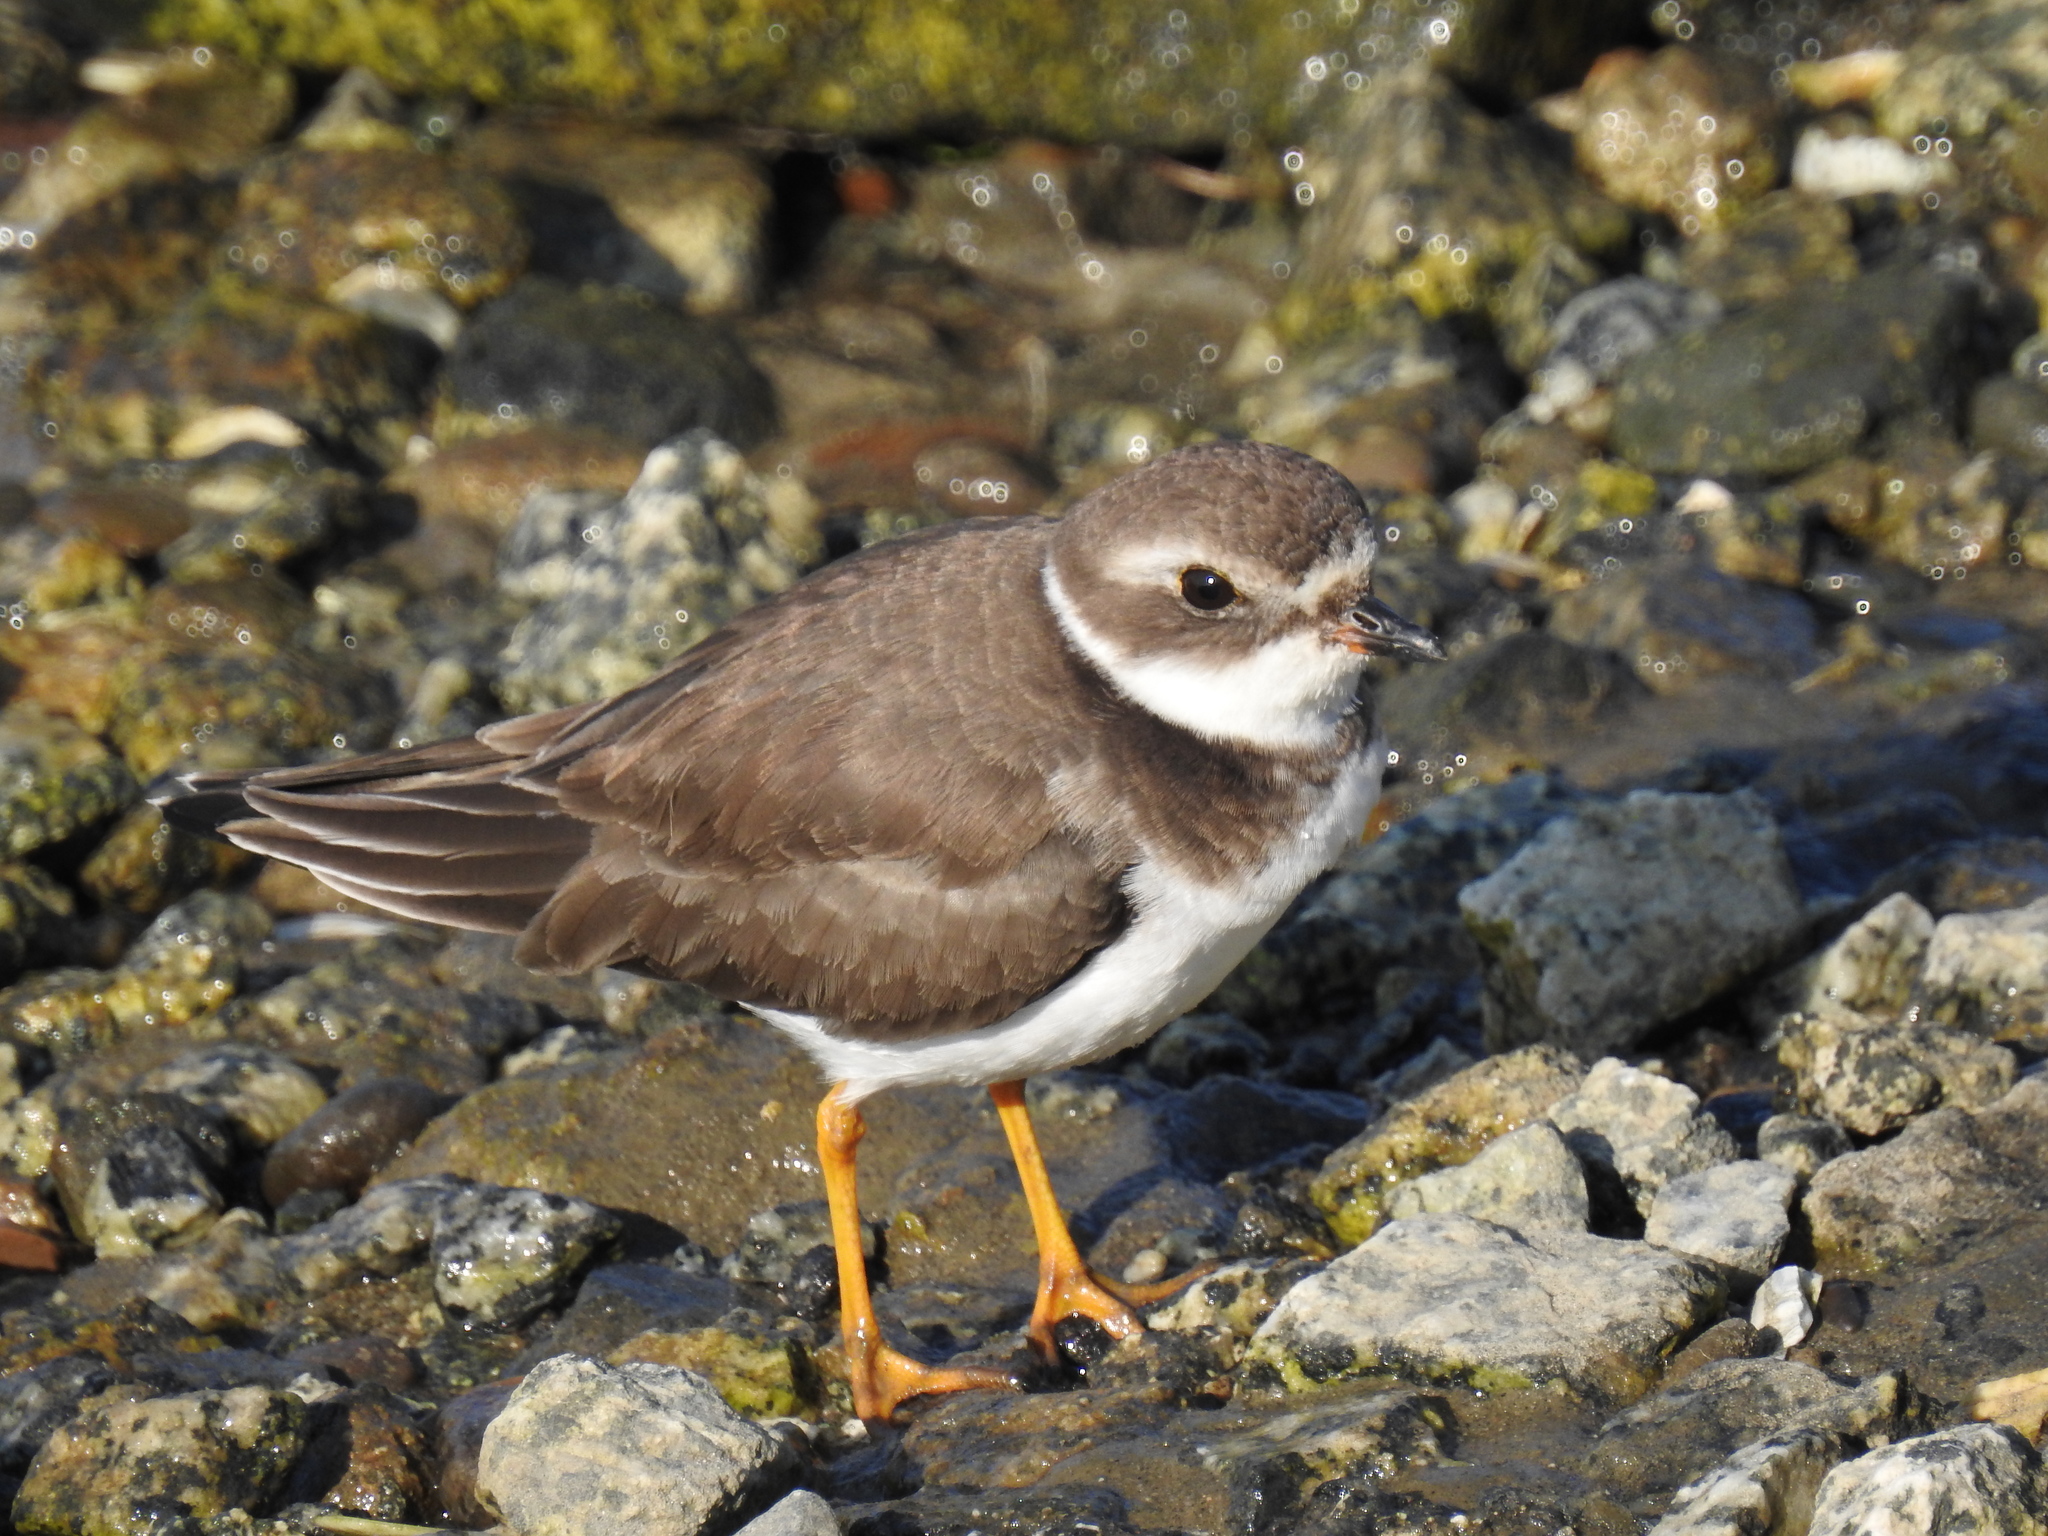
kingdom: Animalia
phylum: Chordata
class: Aves
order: Charadriiformes
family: Charadriidae
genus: Charadrius
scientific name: Charadrius semipalmatus
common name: Semipalmated plover
